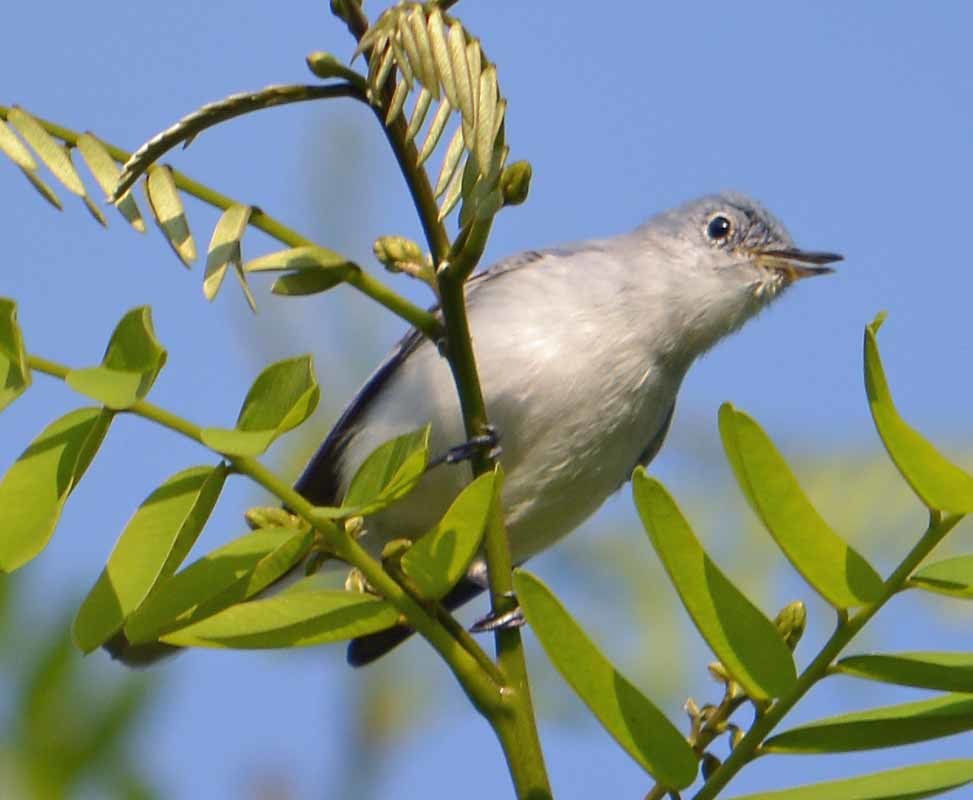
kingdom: Animalia
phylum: Chordata
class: Aves
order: Passeriformes
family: Polioptilidae
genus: Polioptila
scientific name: Polioptila caerulea
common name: Blue-gray gnatcatcher
